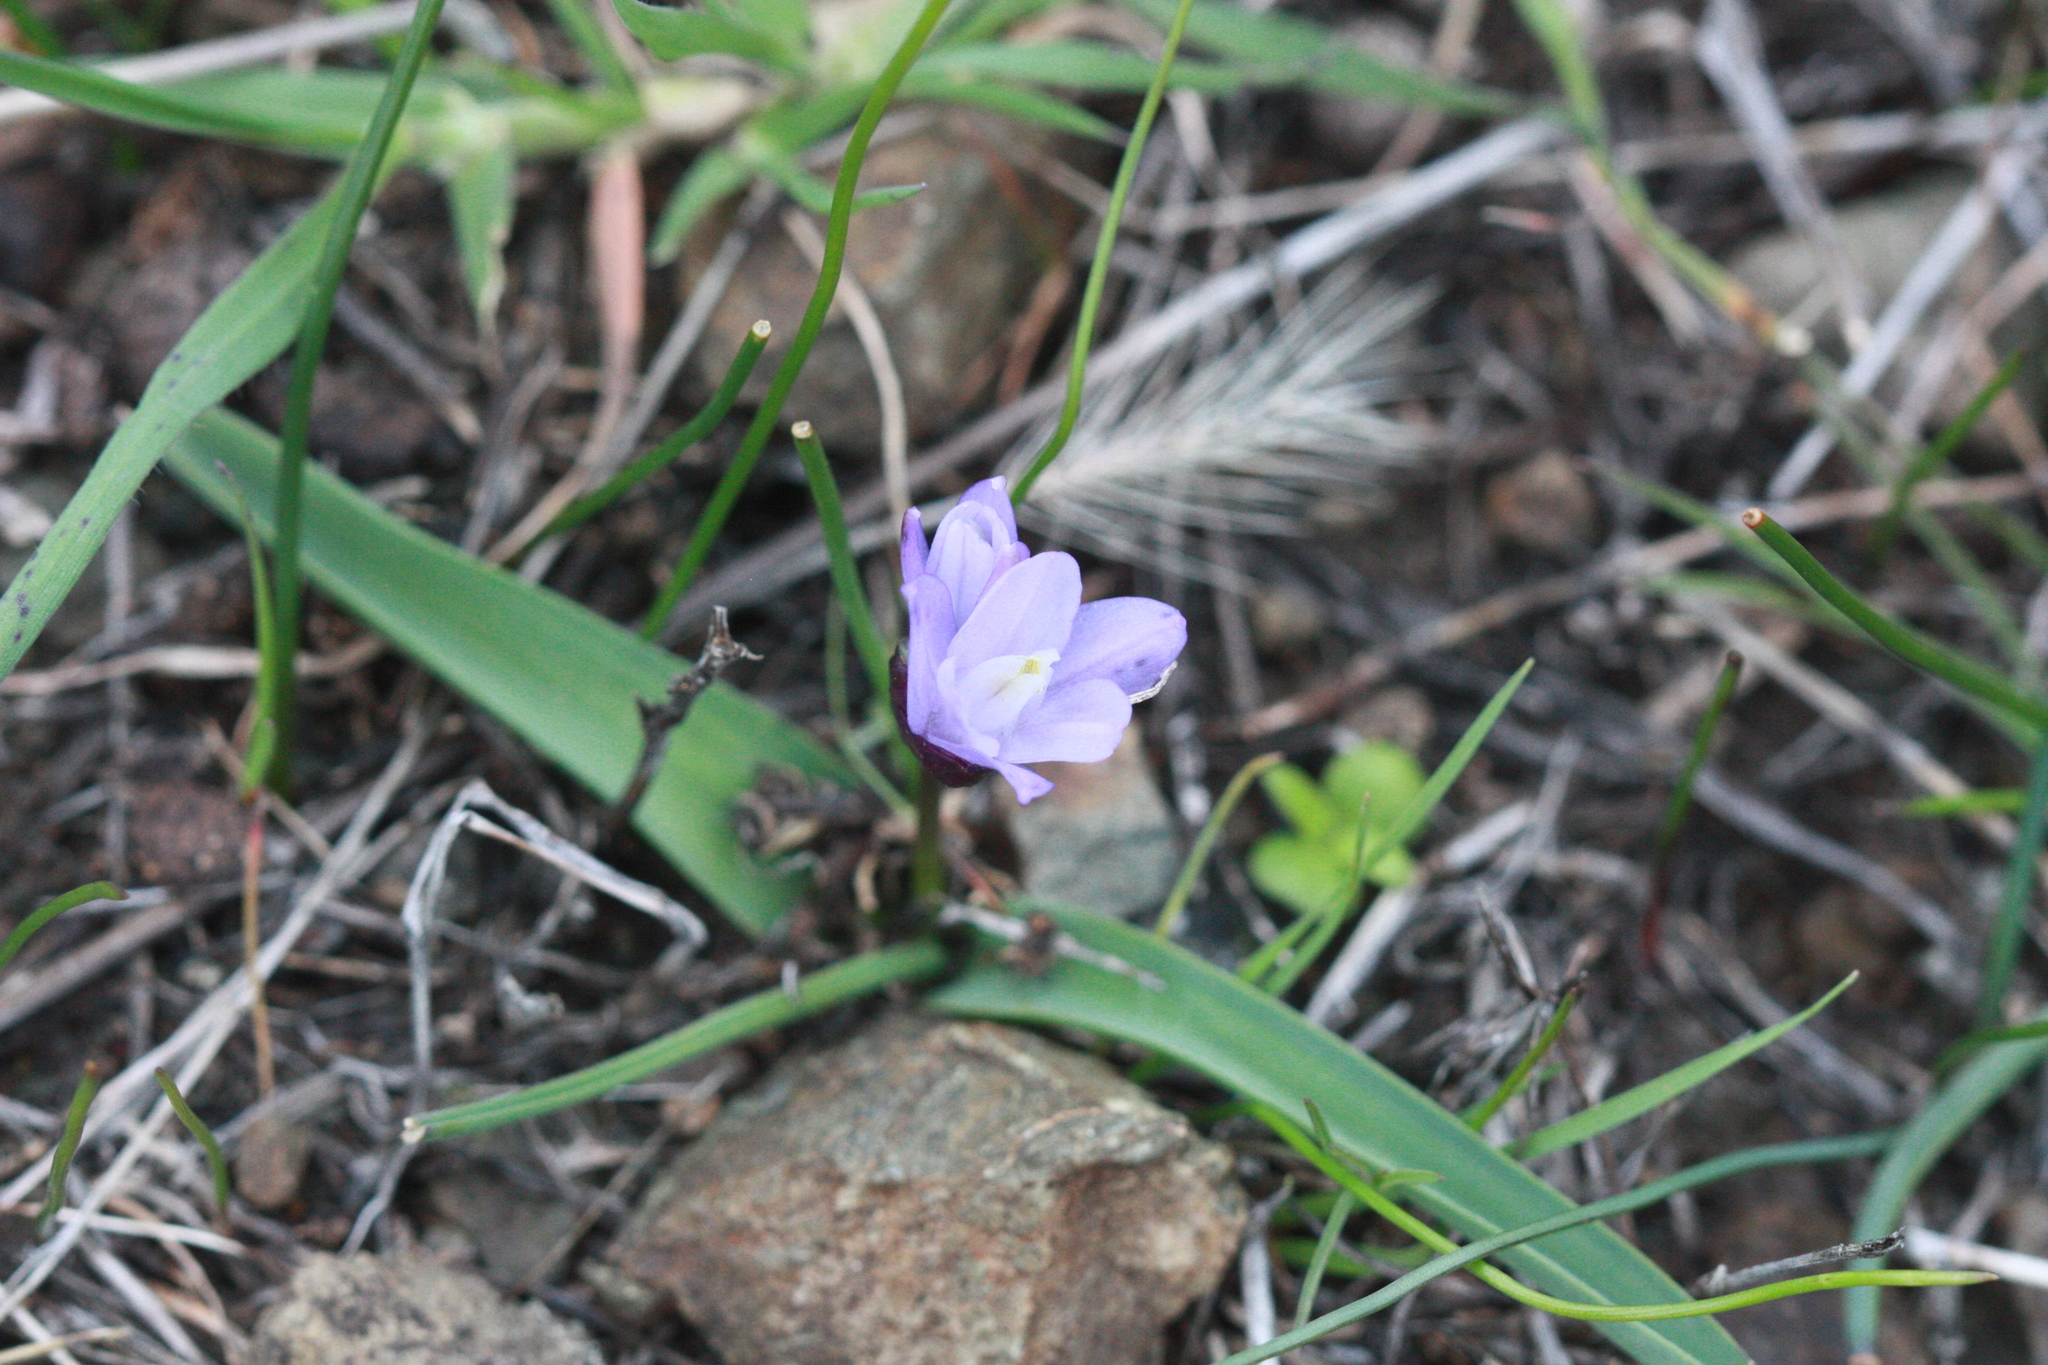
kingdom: Plantae
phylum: Tracheophyta
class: Liliopsida
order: Asparagales
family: Asparagaceae
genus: Dipterostemon
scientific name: Dipterostemon capitatus
